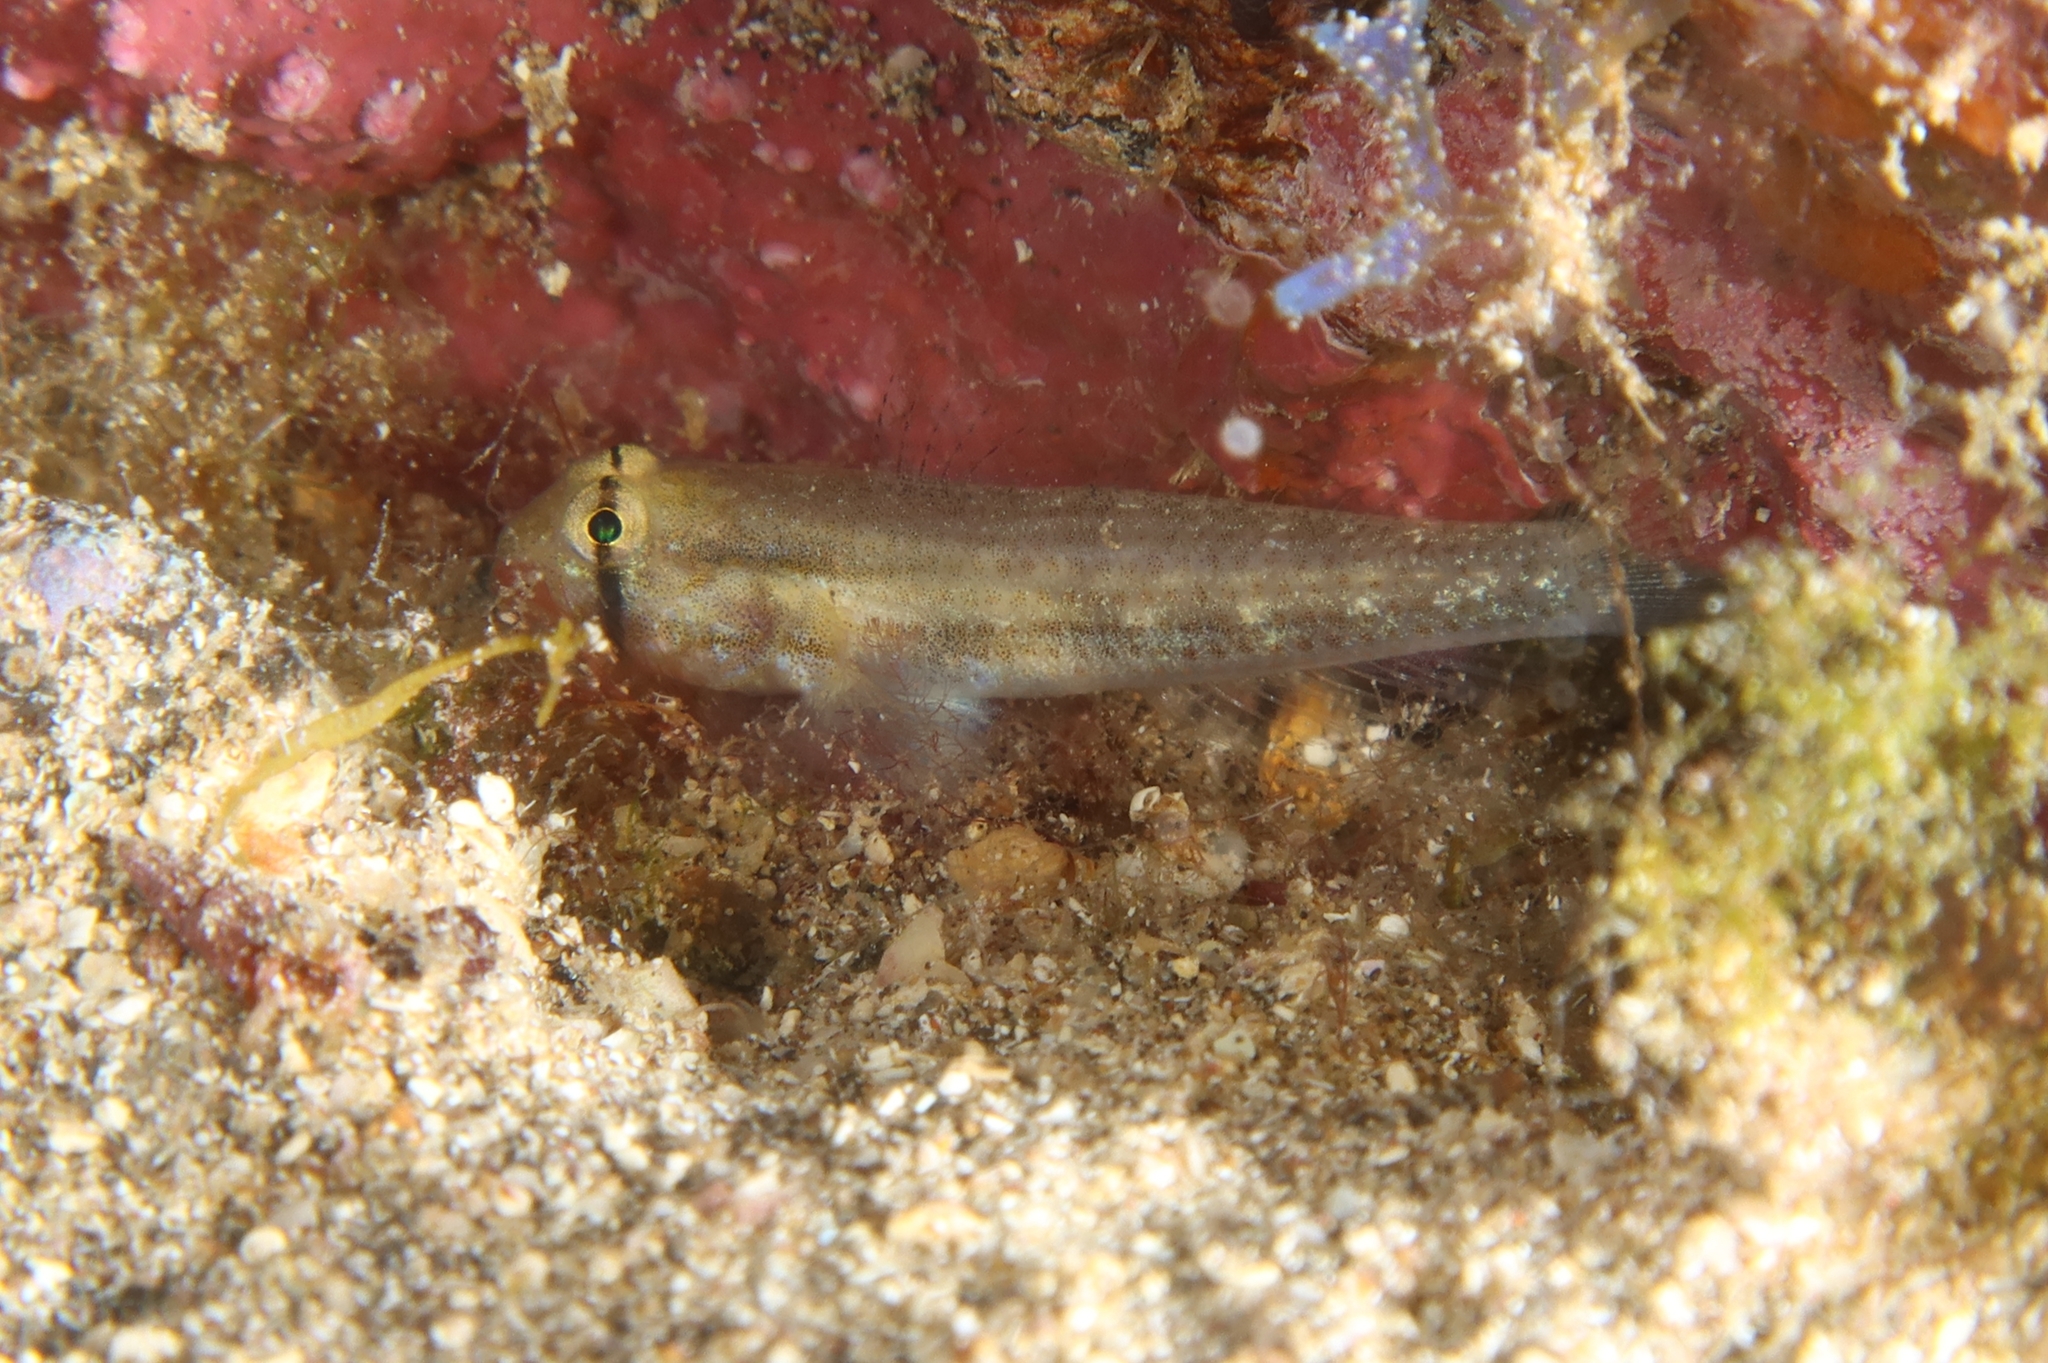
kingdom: Animalia
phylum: Chordata
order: Perciformes
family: Gobiidae
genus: Gnatholepis
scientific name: Gnatholepis thompsoni
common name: Goldspot goby
